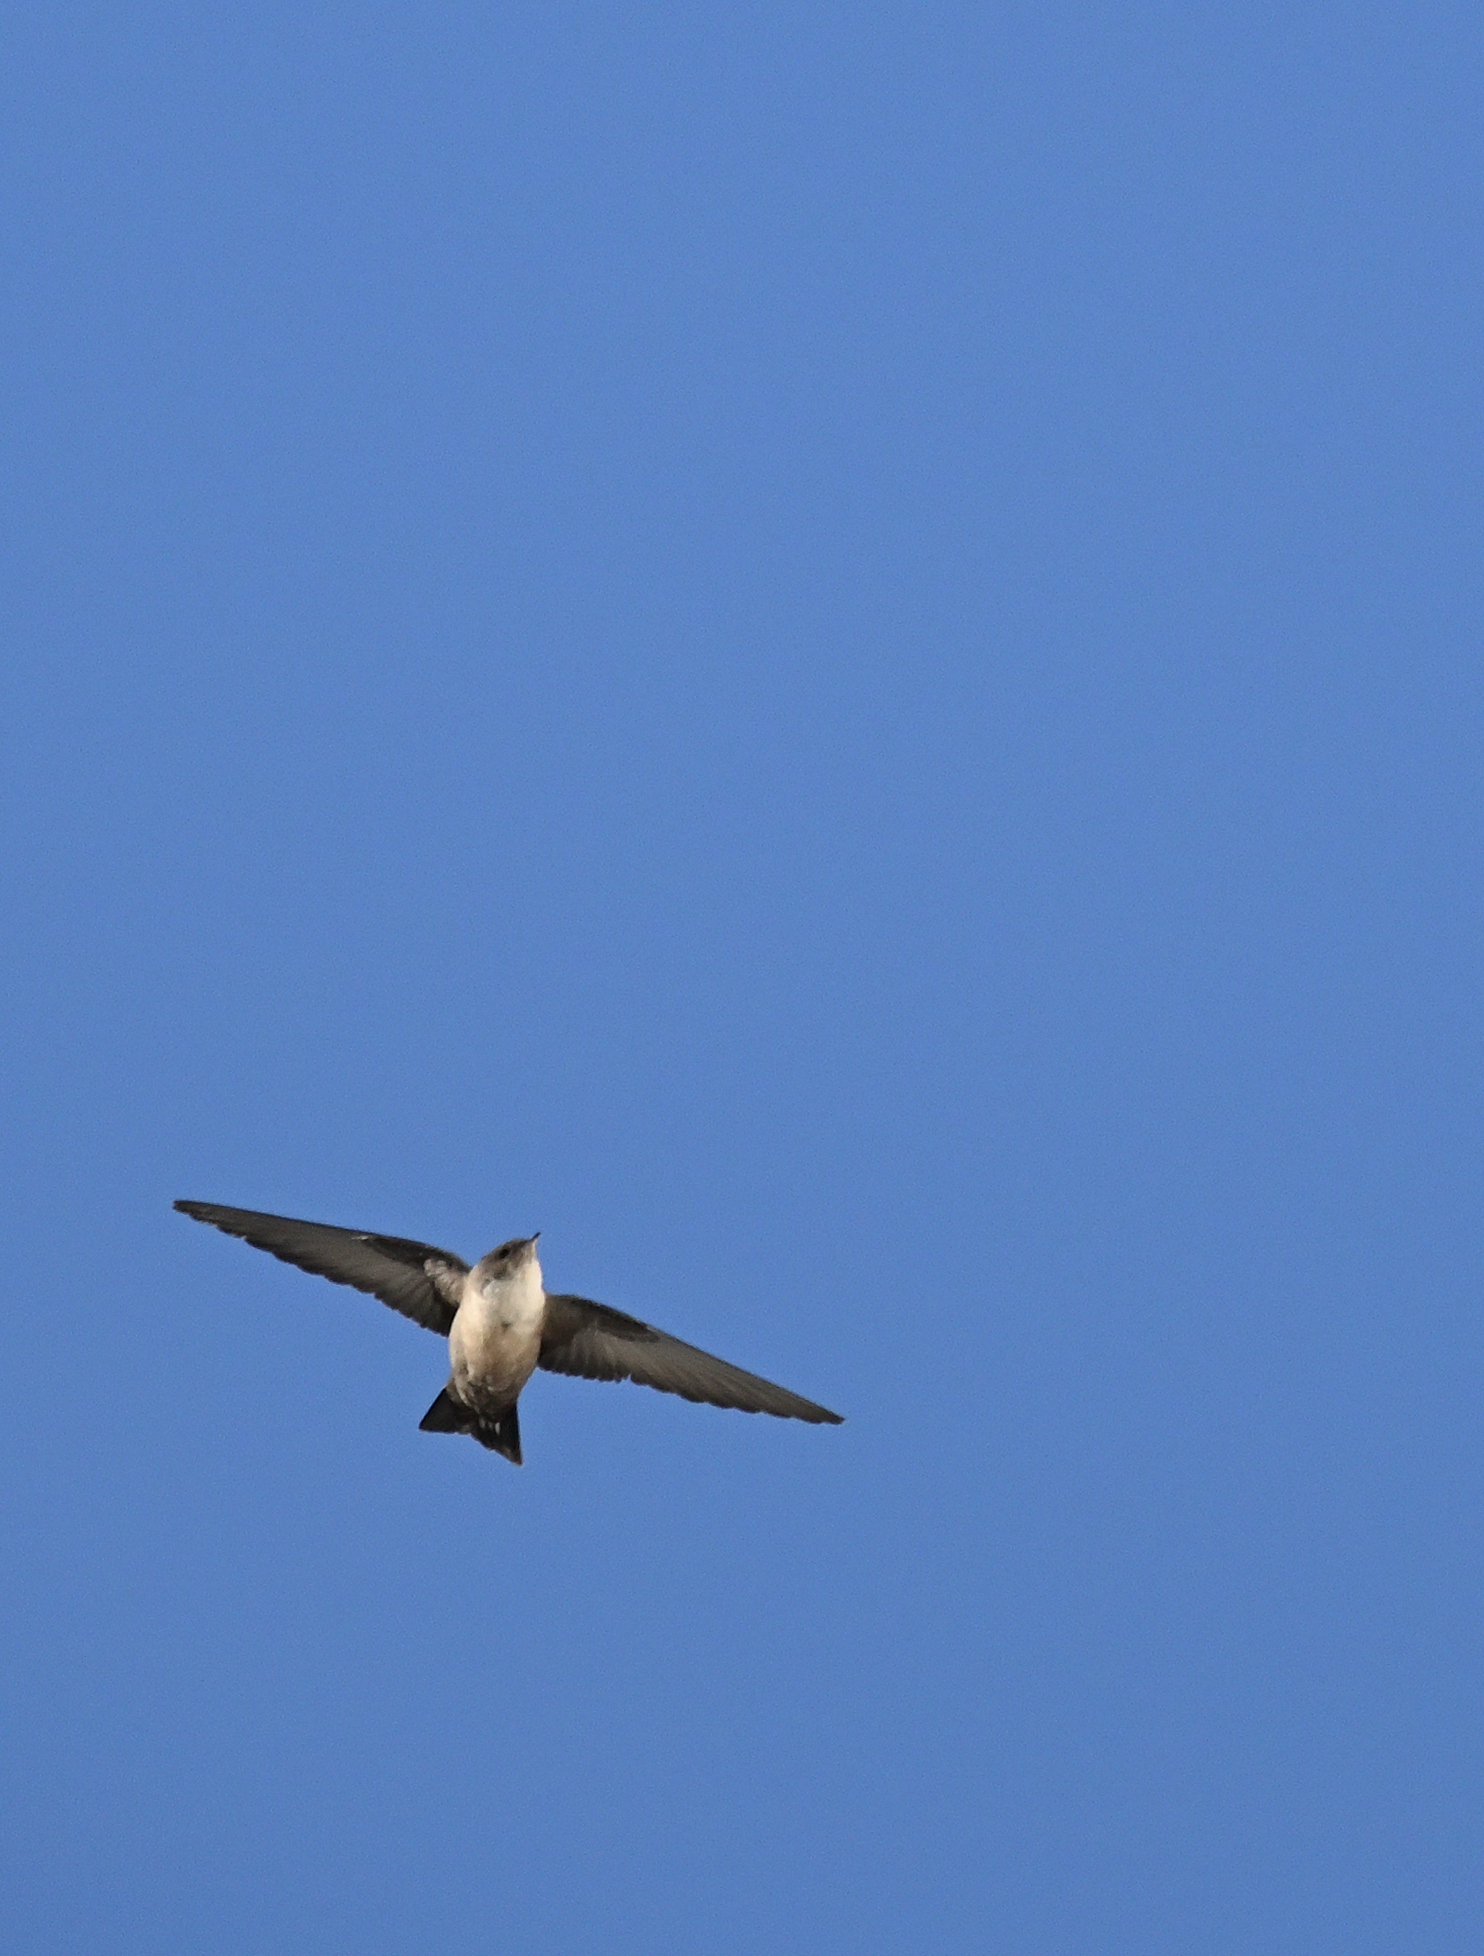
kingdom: Animalia
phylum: Chordata
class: Aves
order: Passeriformes
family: Hirundinidae
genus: Ptyonoprogne
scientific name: Ptyonoprogne rupestris
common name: Eurasian crag martin
